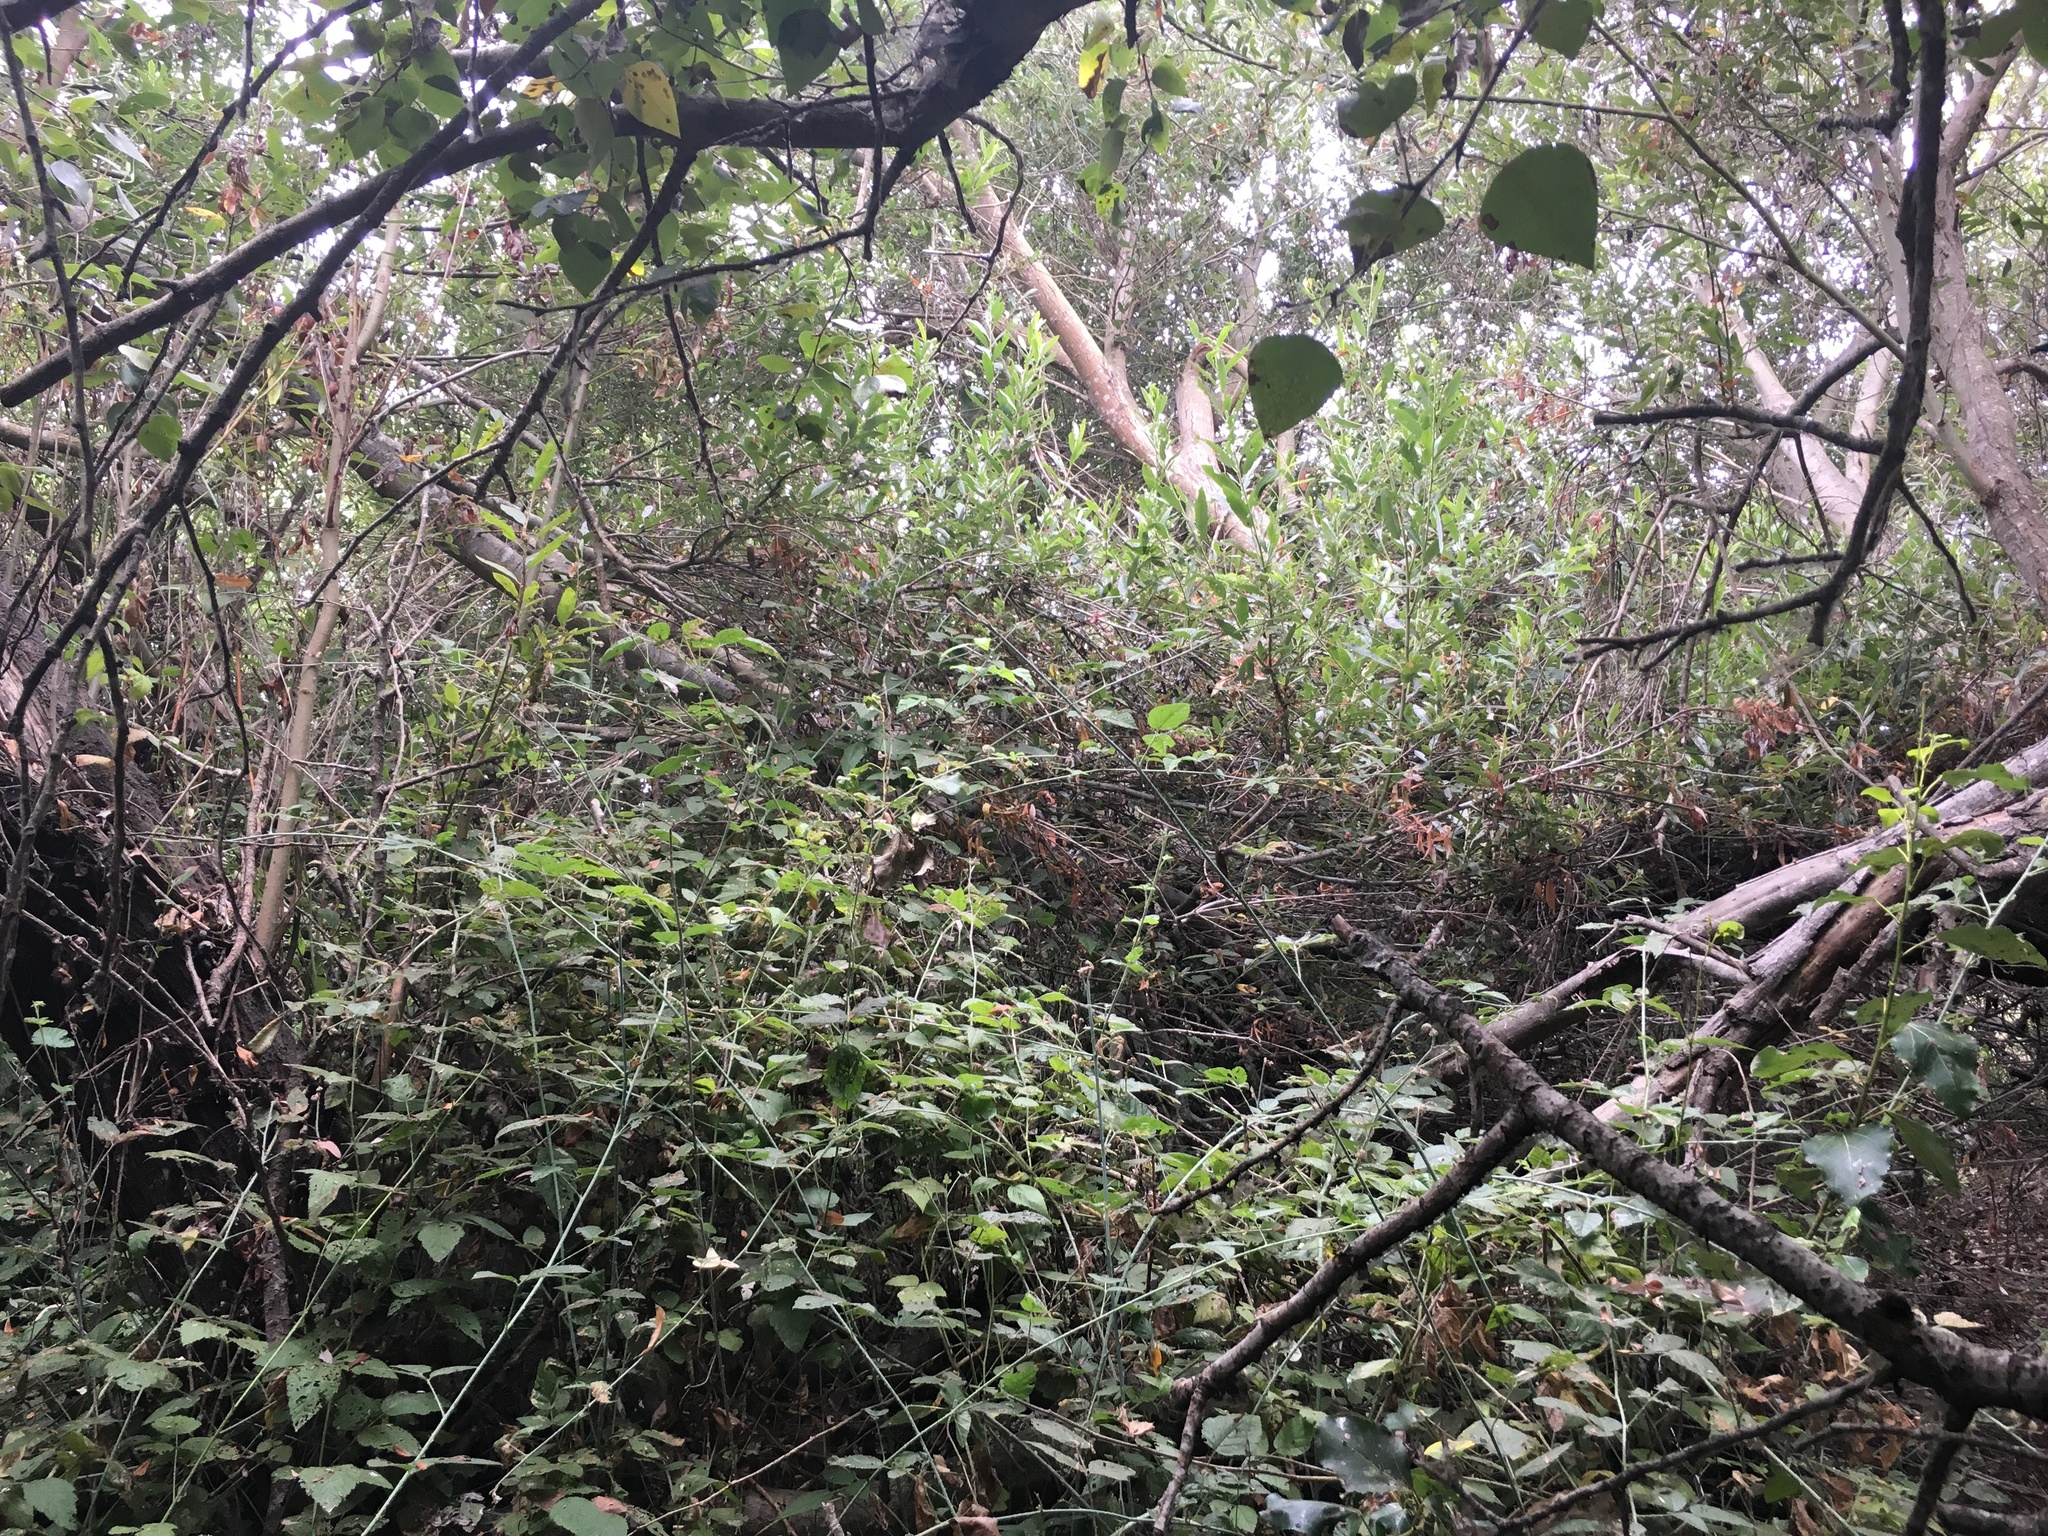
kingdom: Plantae
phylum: Tracheophyta
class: Magnoliopsida
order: Rosales
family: Rosaceae
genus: Rubus
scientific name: Rubus ursinus
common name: Pacific blackberry
